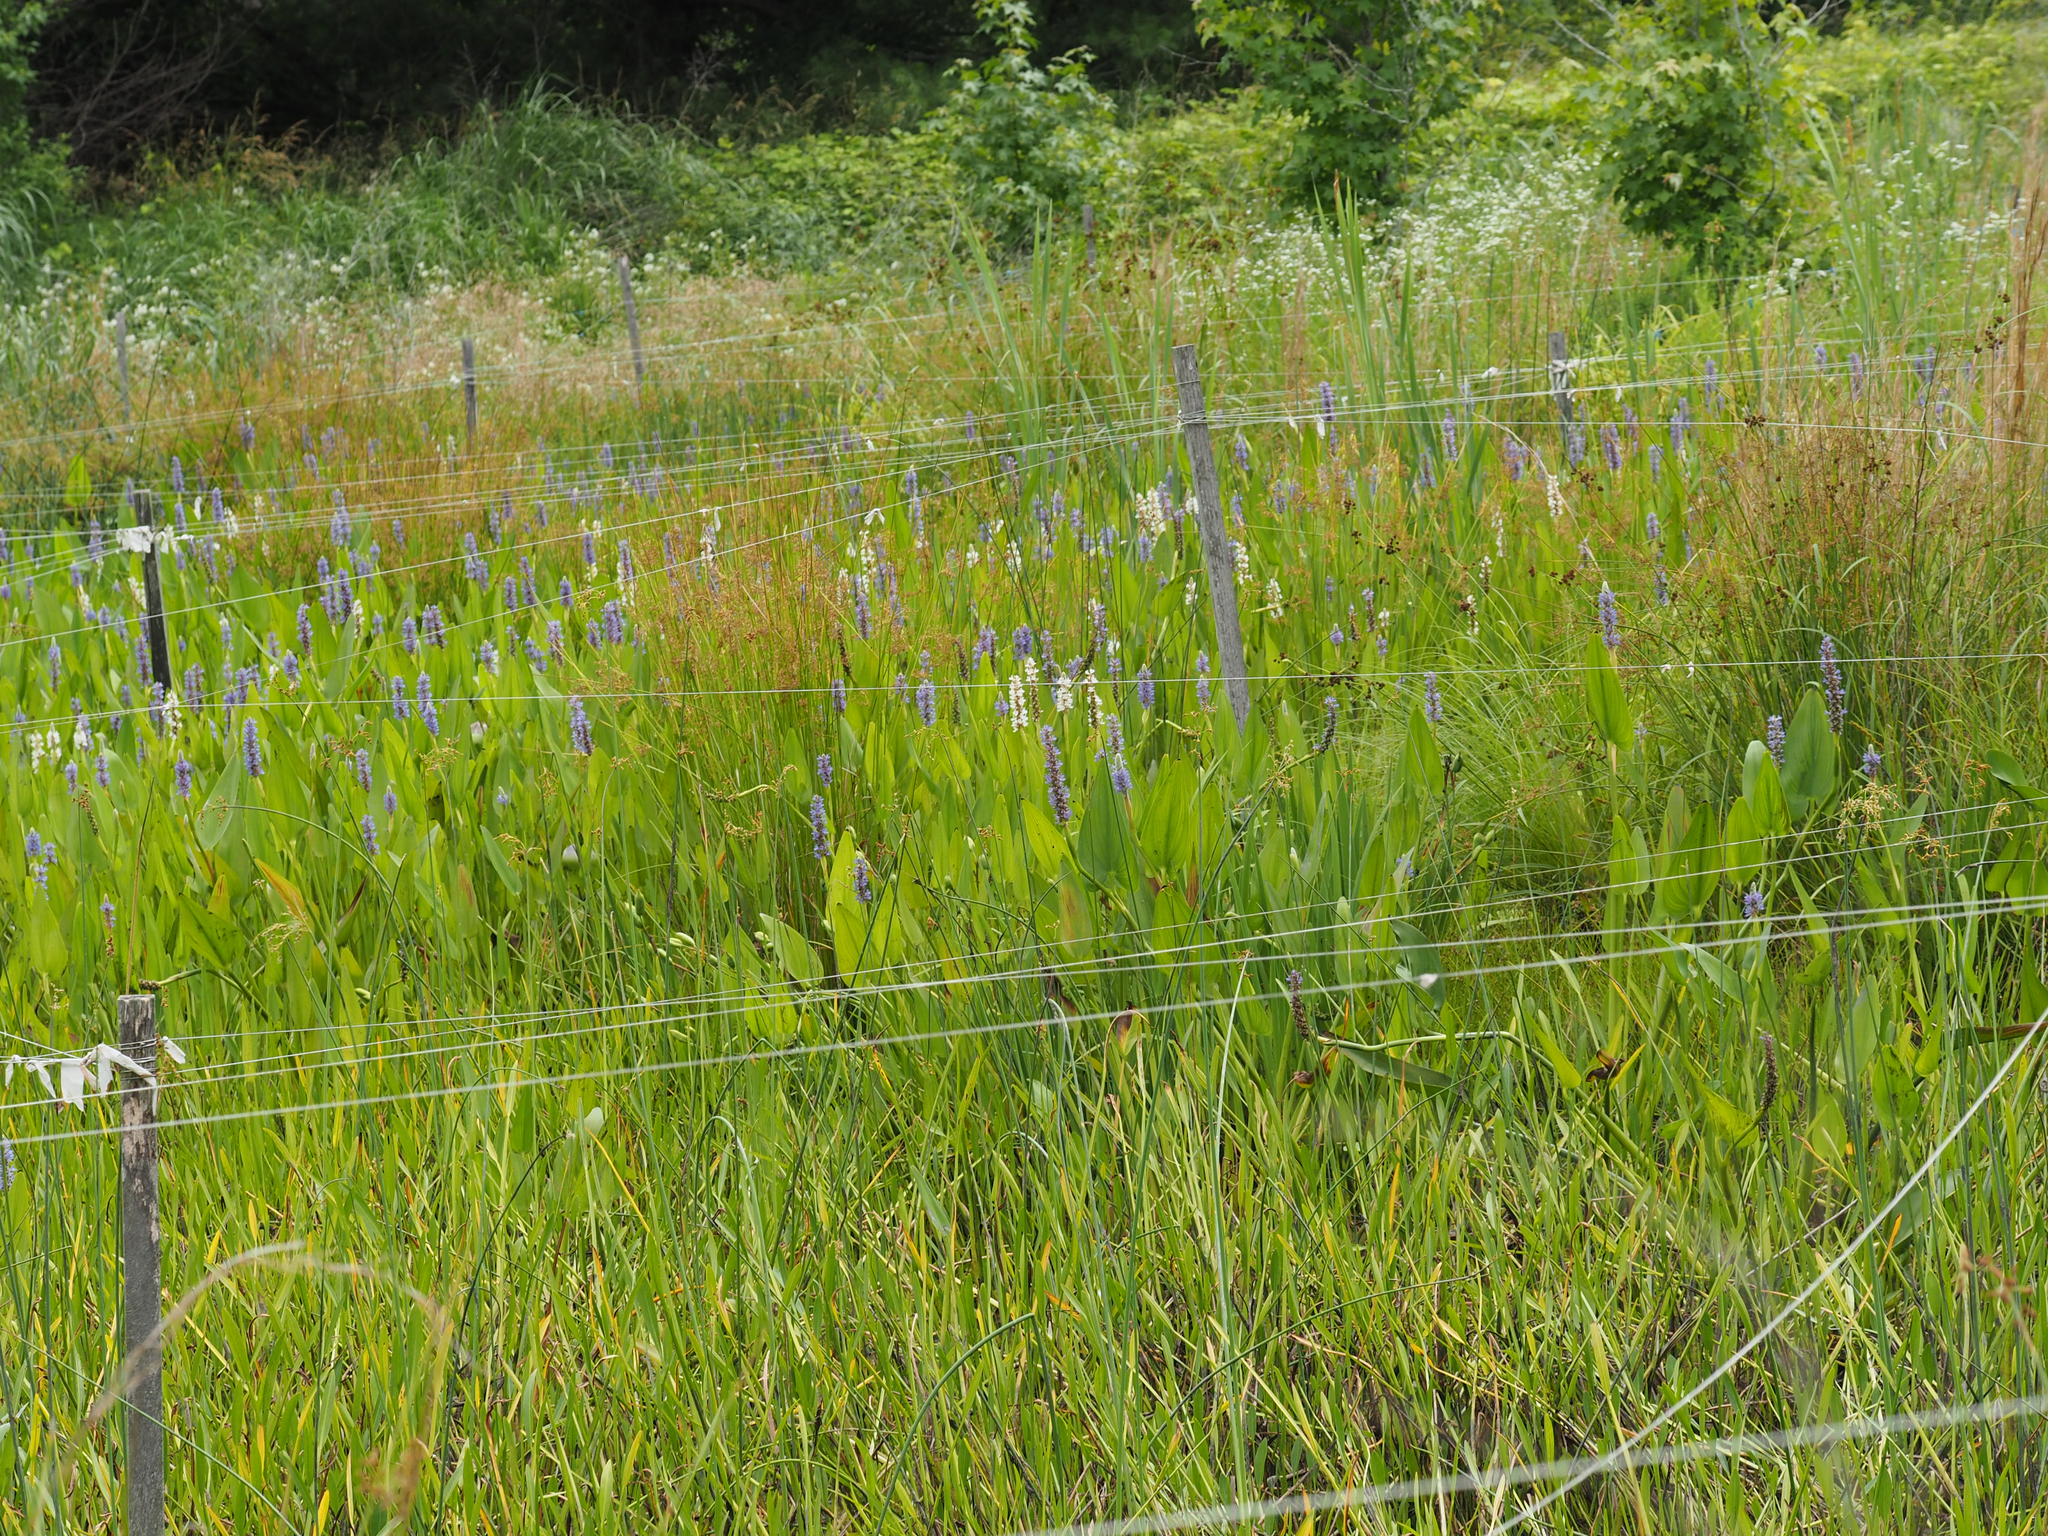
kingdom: Plantae
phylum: Tracheophyta
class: Liliopsida
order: Commelinales
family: Pontederiaceae
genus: Pontederia
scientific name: Pontederia cordata
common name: Pickerelweed
